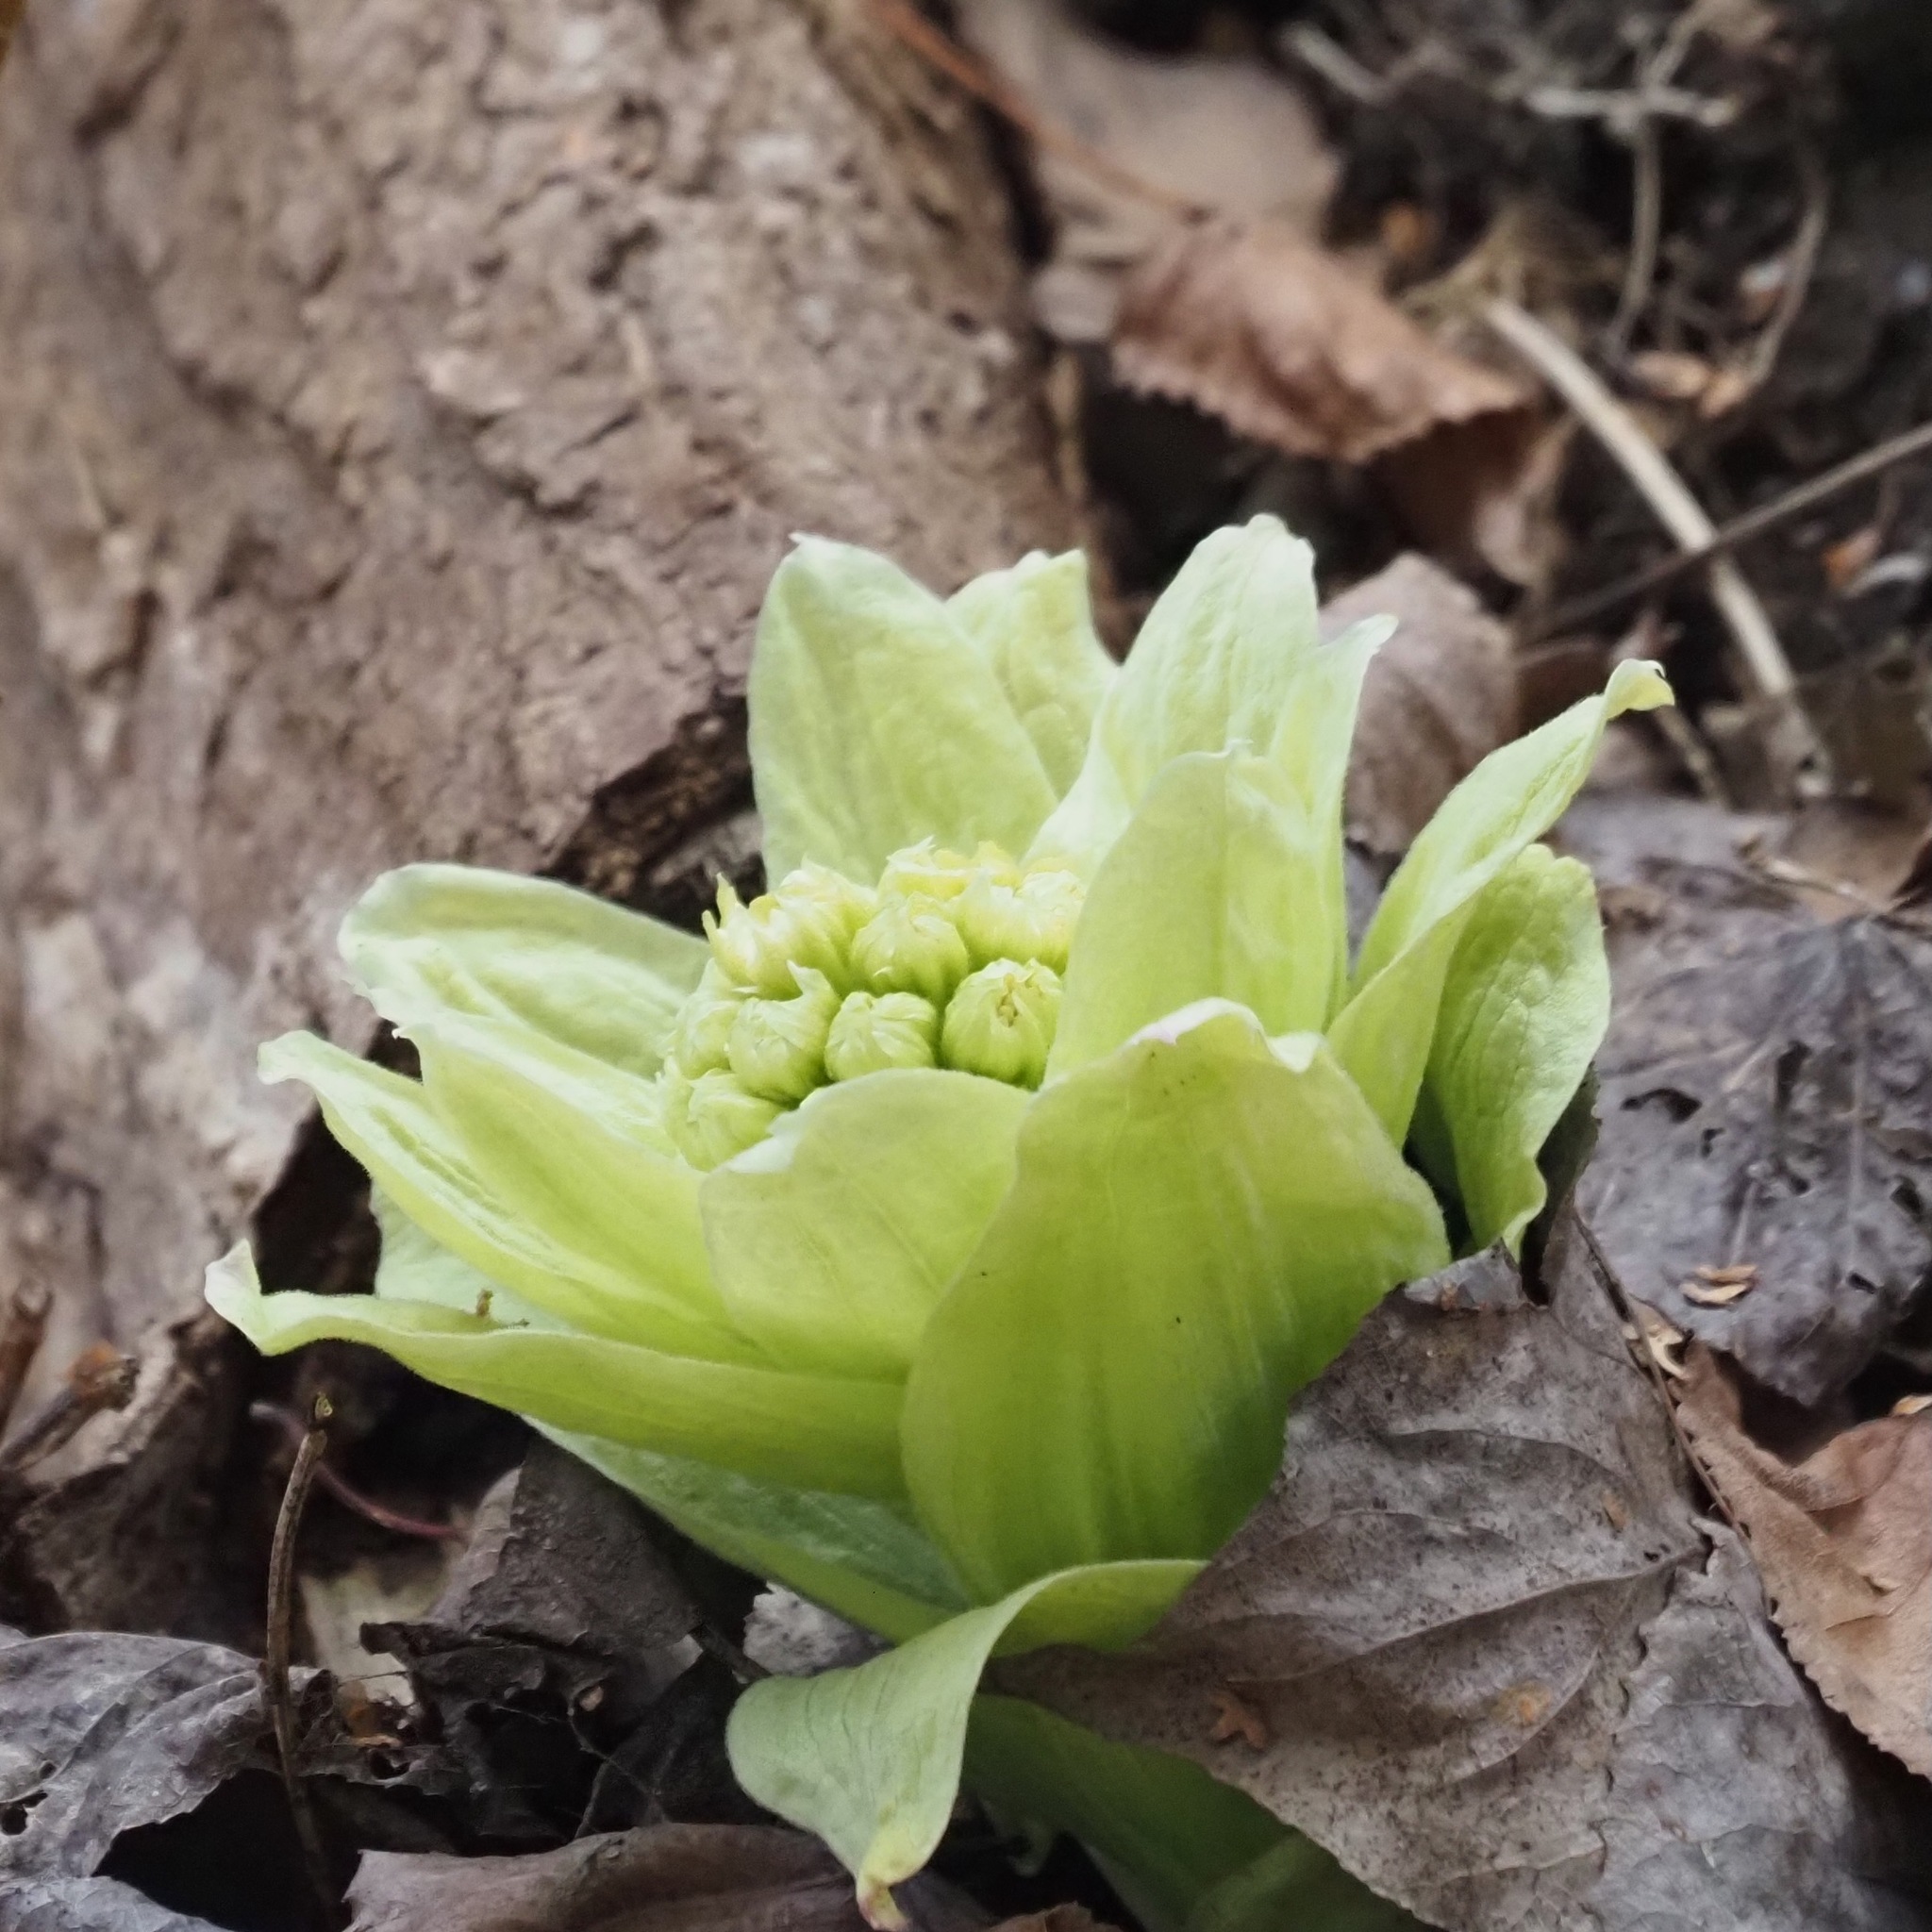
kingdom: Plantae
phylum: Tracheophyta
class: Magnoliopsida
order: Asterales
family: Asteraceae
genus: Petasites
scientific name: Petasites japonicus
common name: Giant butterbur
